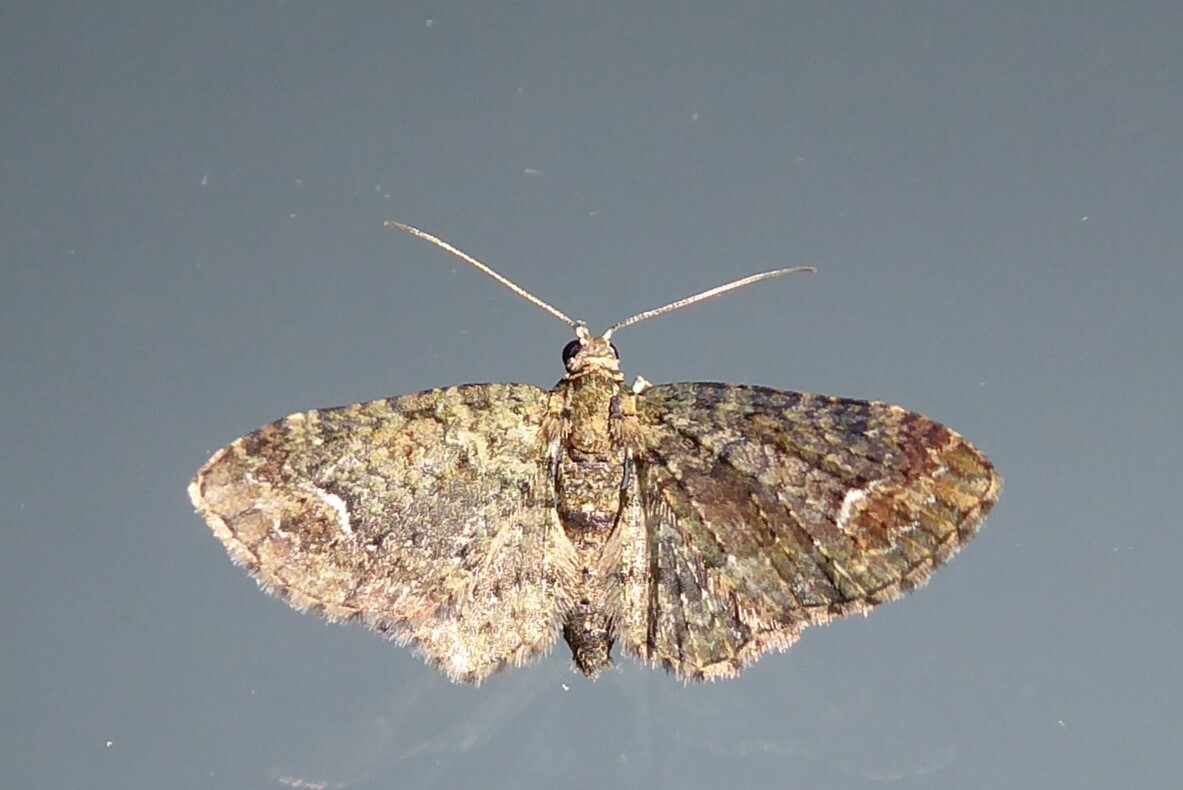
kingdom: Animalia
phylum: Arthropoda
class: Insecta
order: Lepidoptera
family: Geometridae
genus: Pasiphilodes
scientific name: Pasiphilodes testulata
